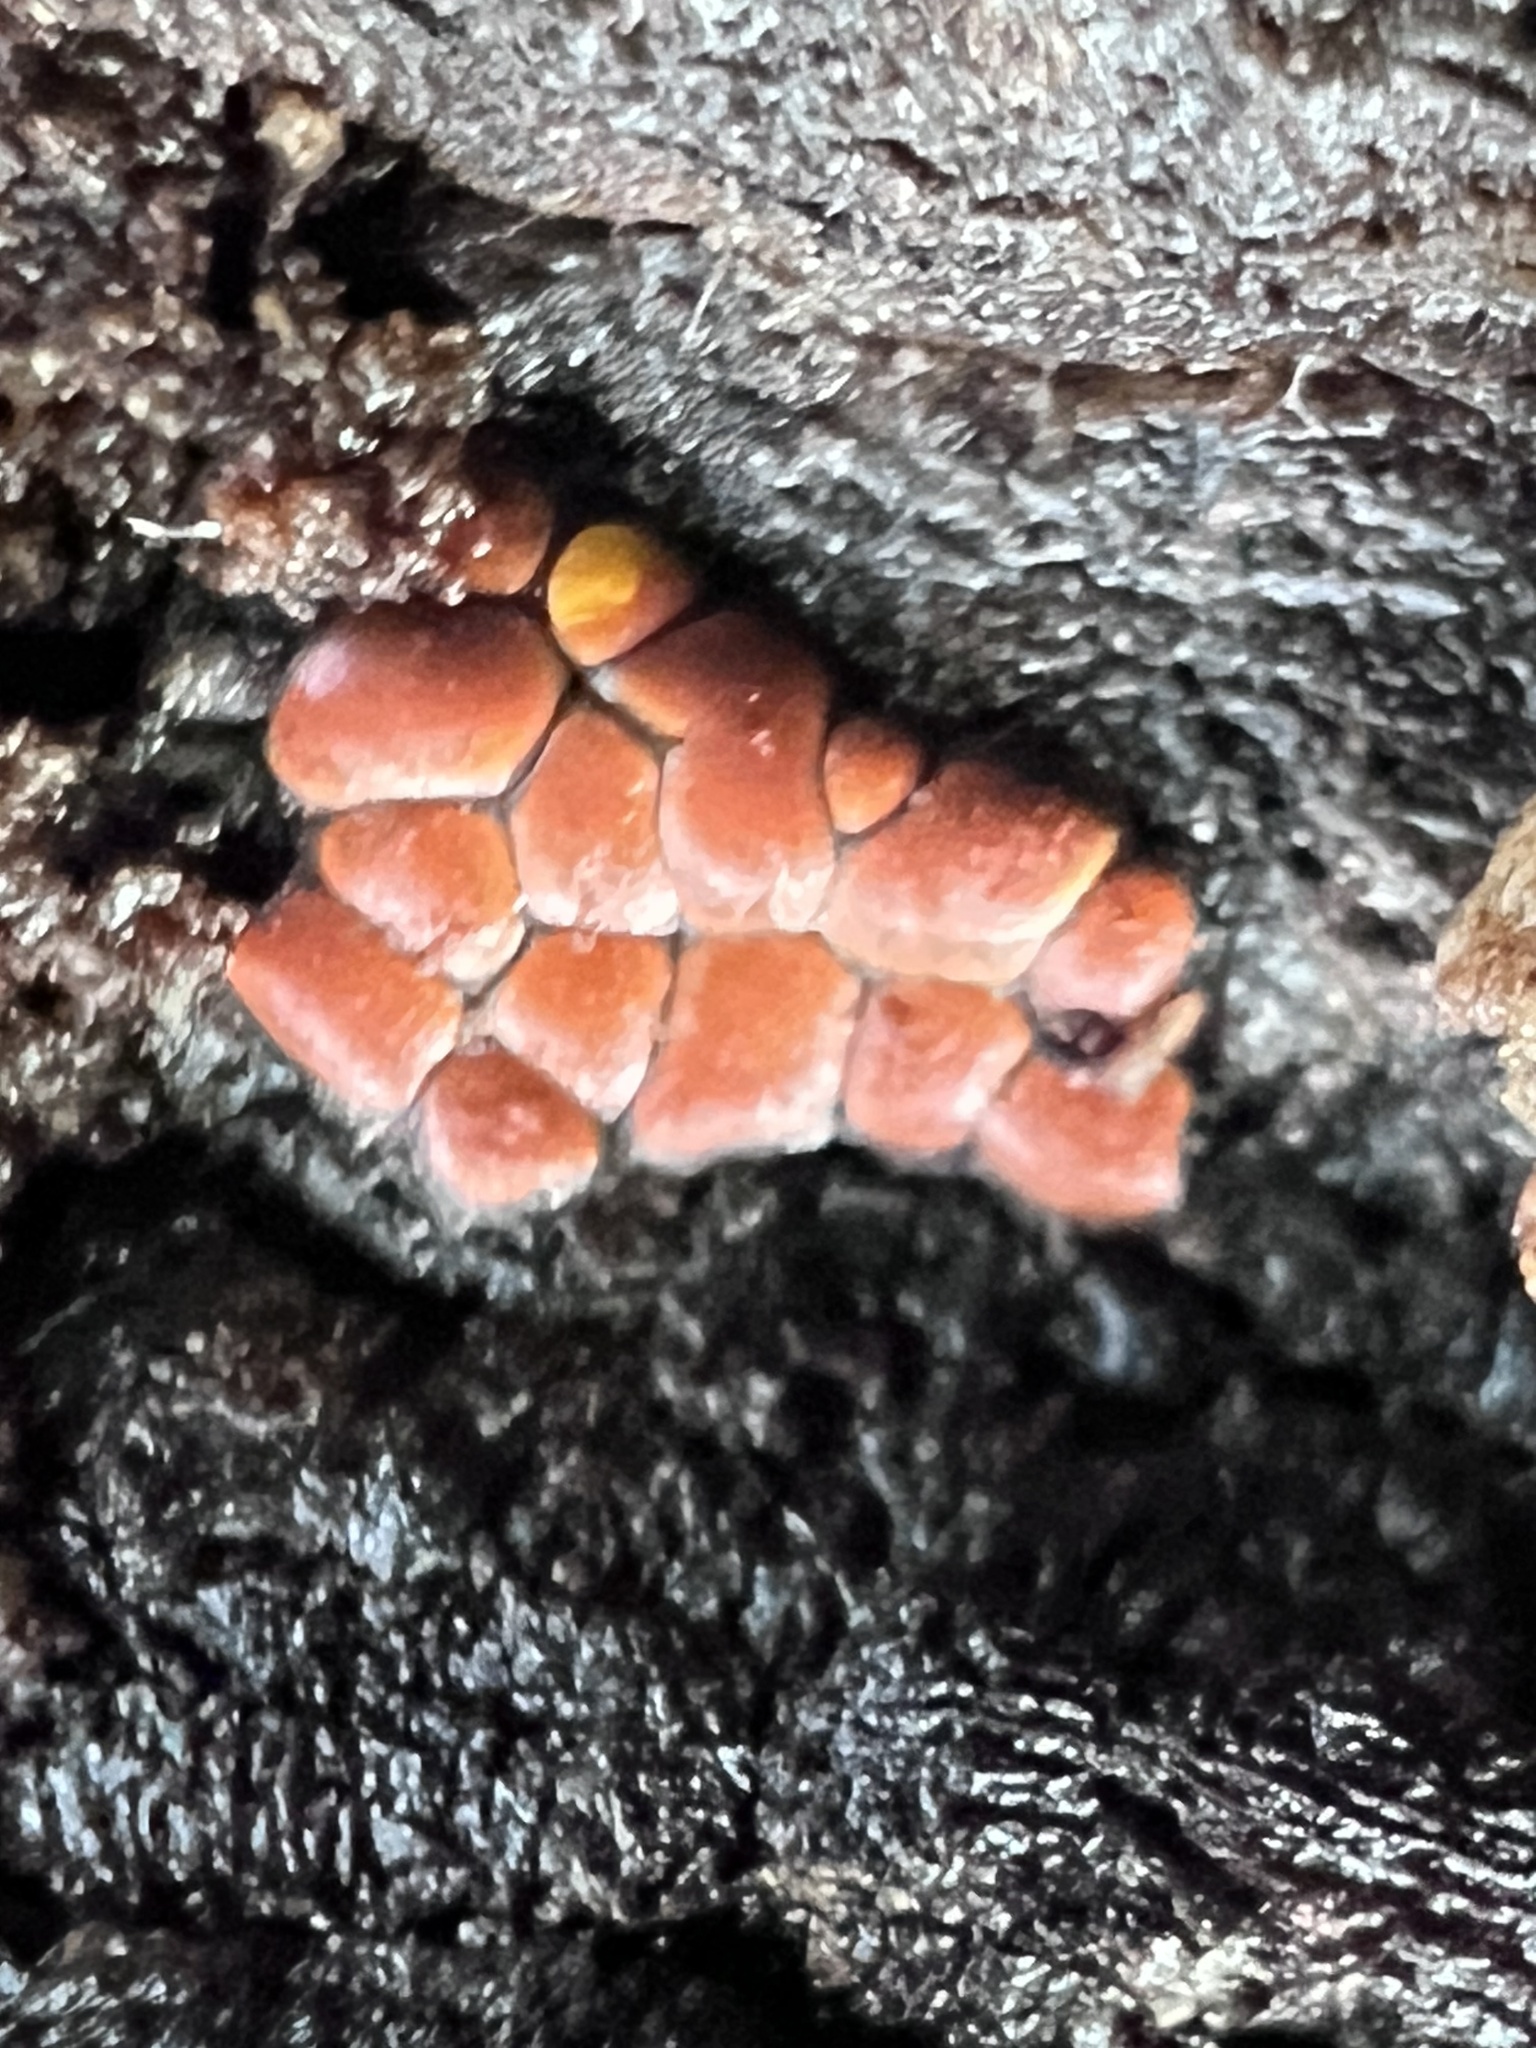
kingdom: Protozoa
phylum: Mycetozoa
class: Myxomycetes
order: Trichiales
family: Trichiaceae
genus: Perichaena
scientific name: Perichaena depressa
